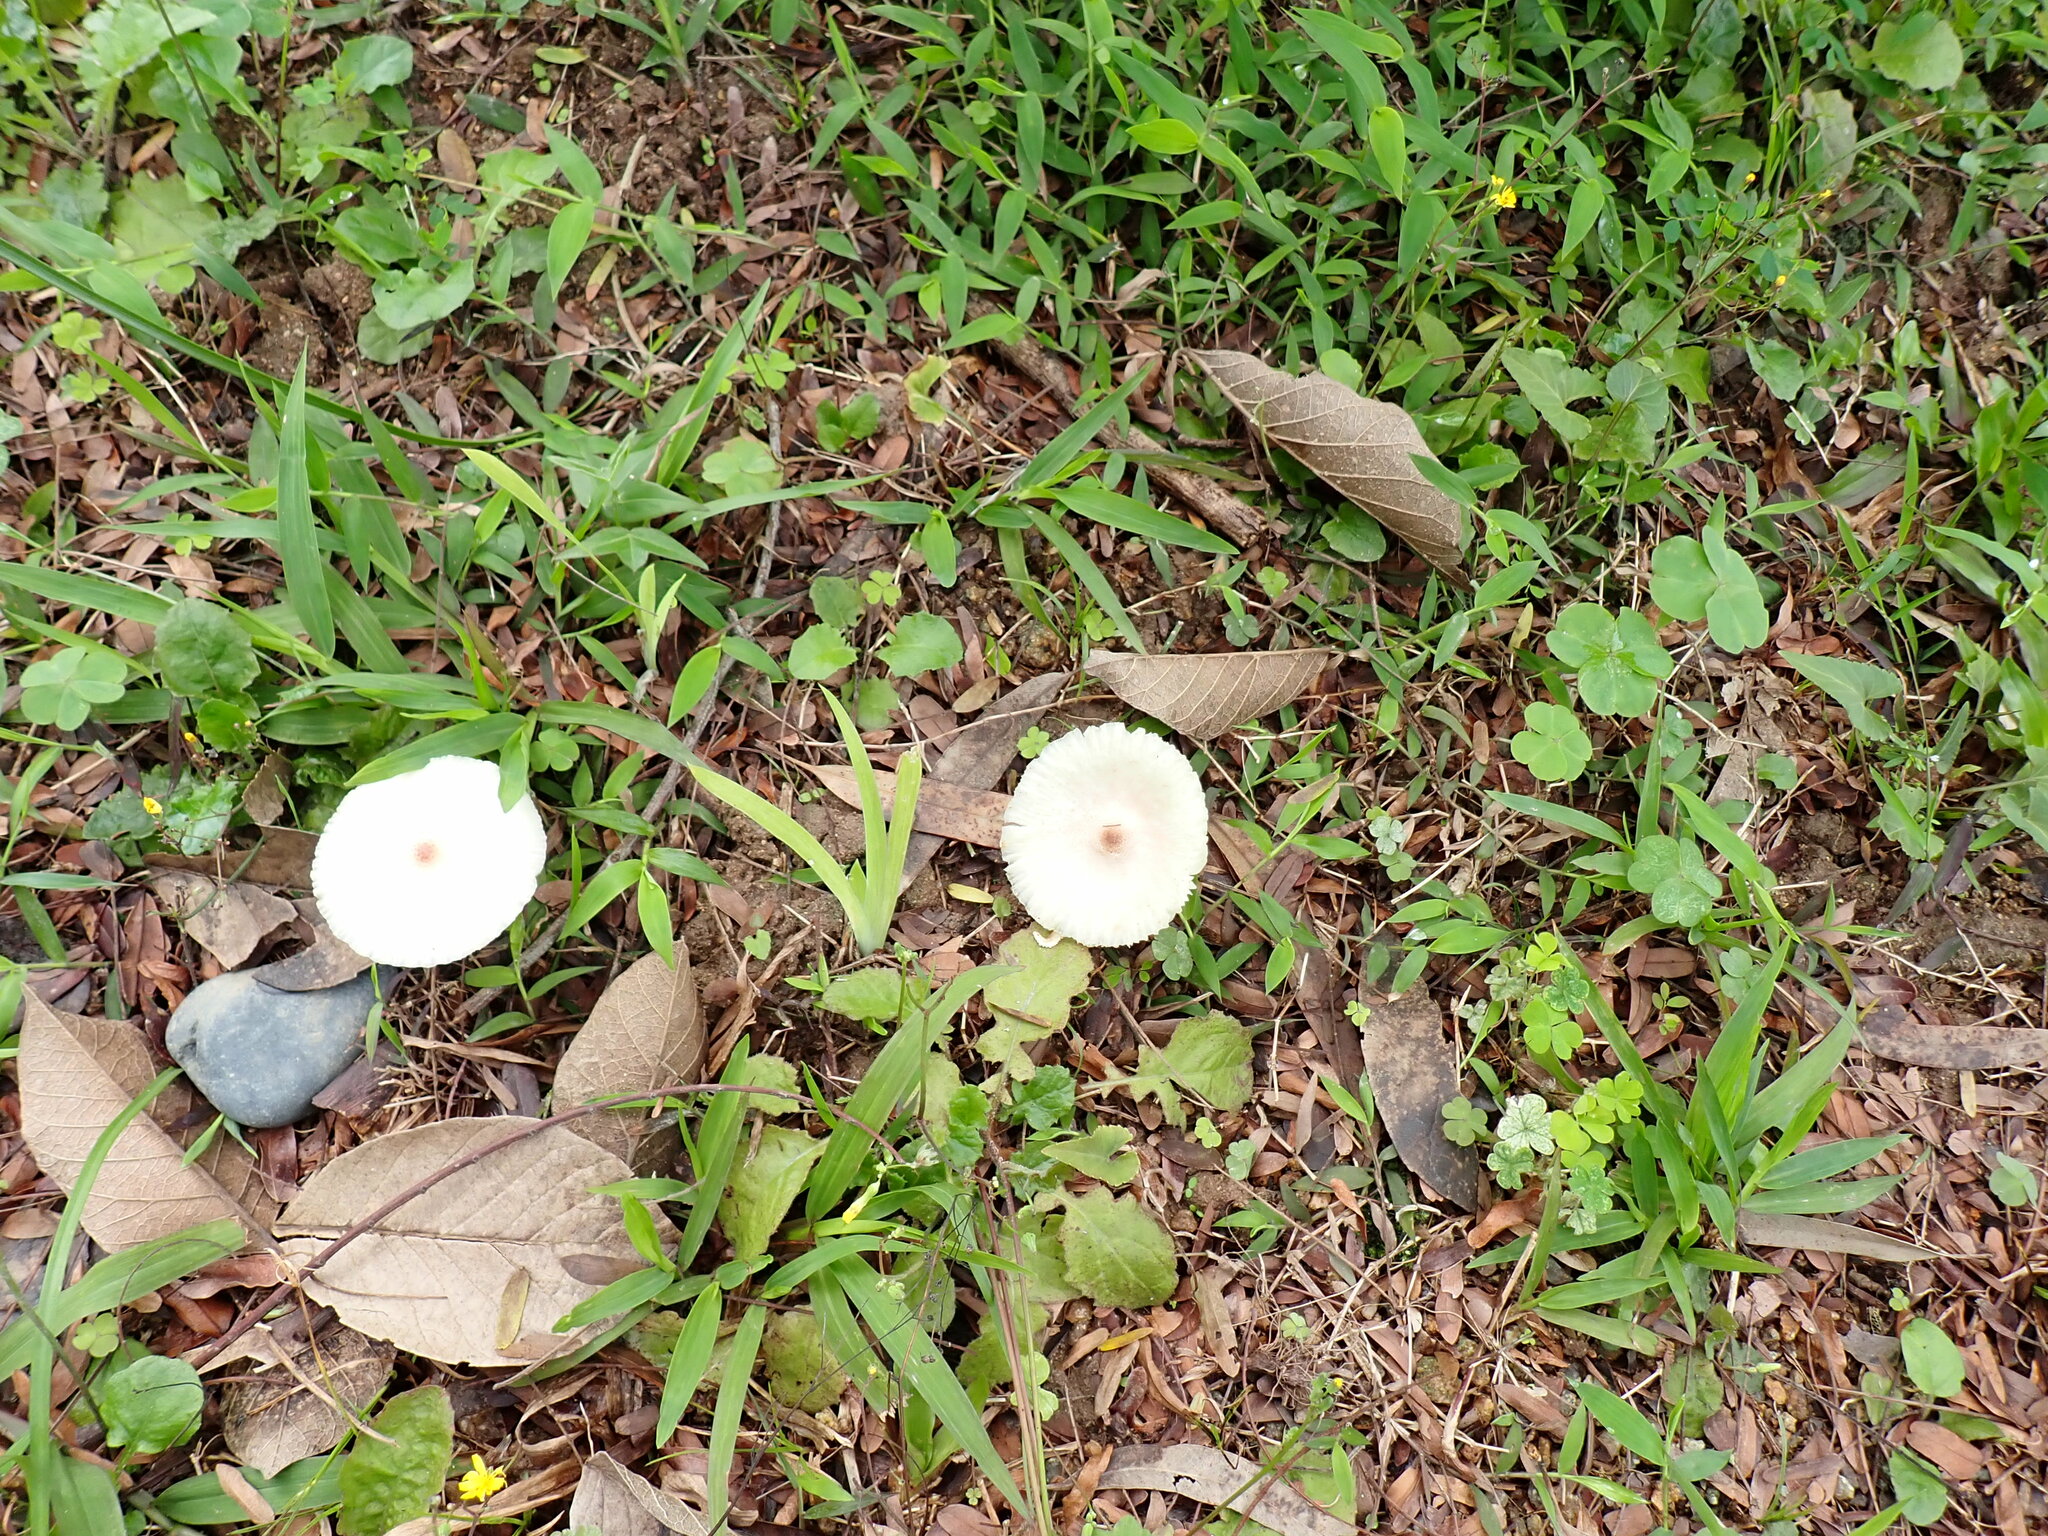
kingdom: Fungi
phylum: Basidiomycota
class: Agaricomycetes
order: Agaricales
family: Agaricaceae
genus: Leucoagaricus
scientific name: Leucoagaricus lacrymans
